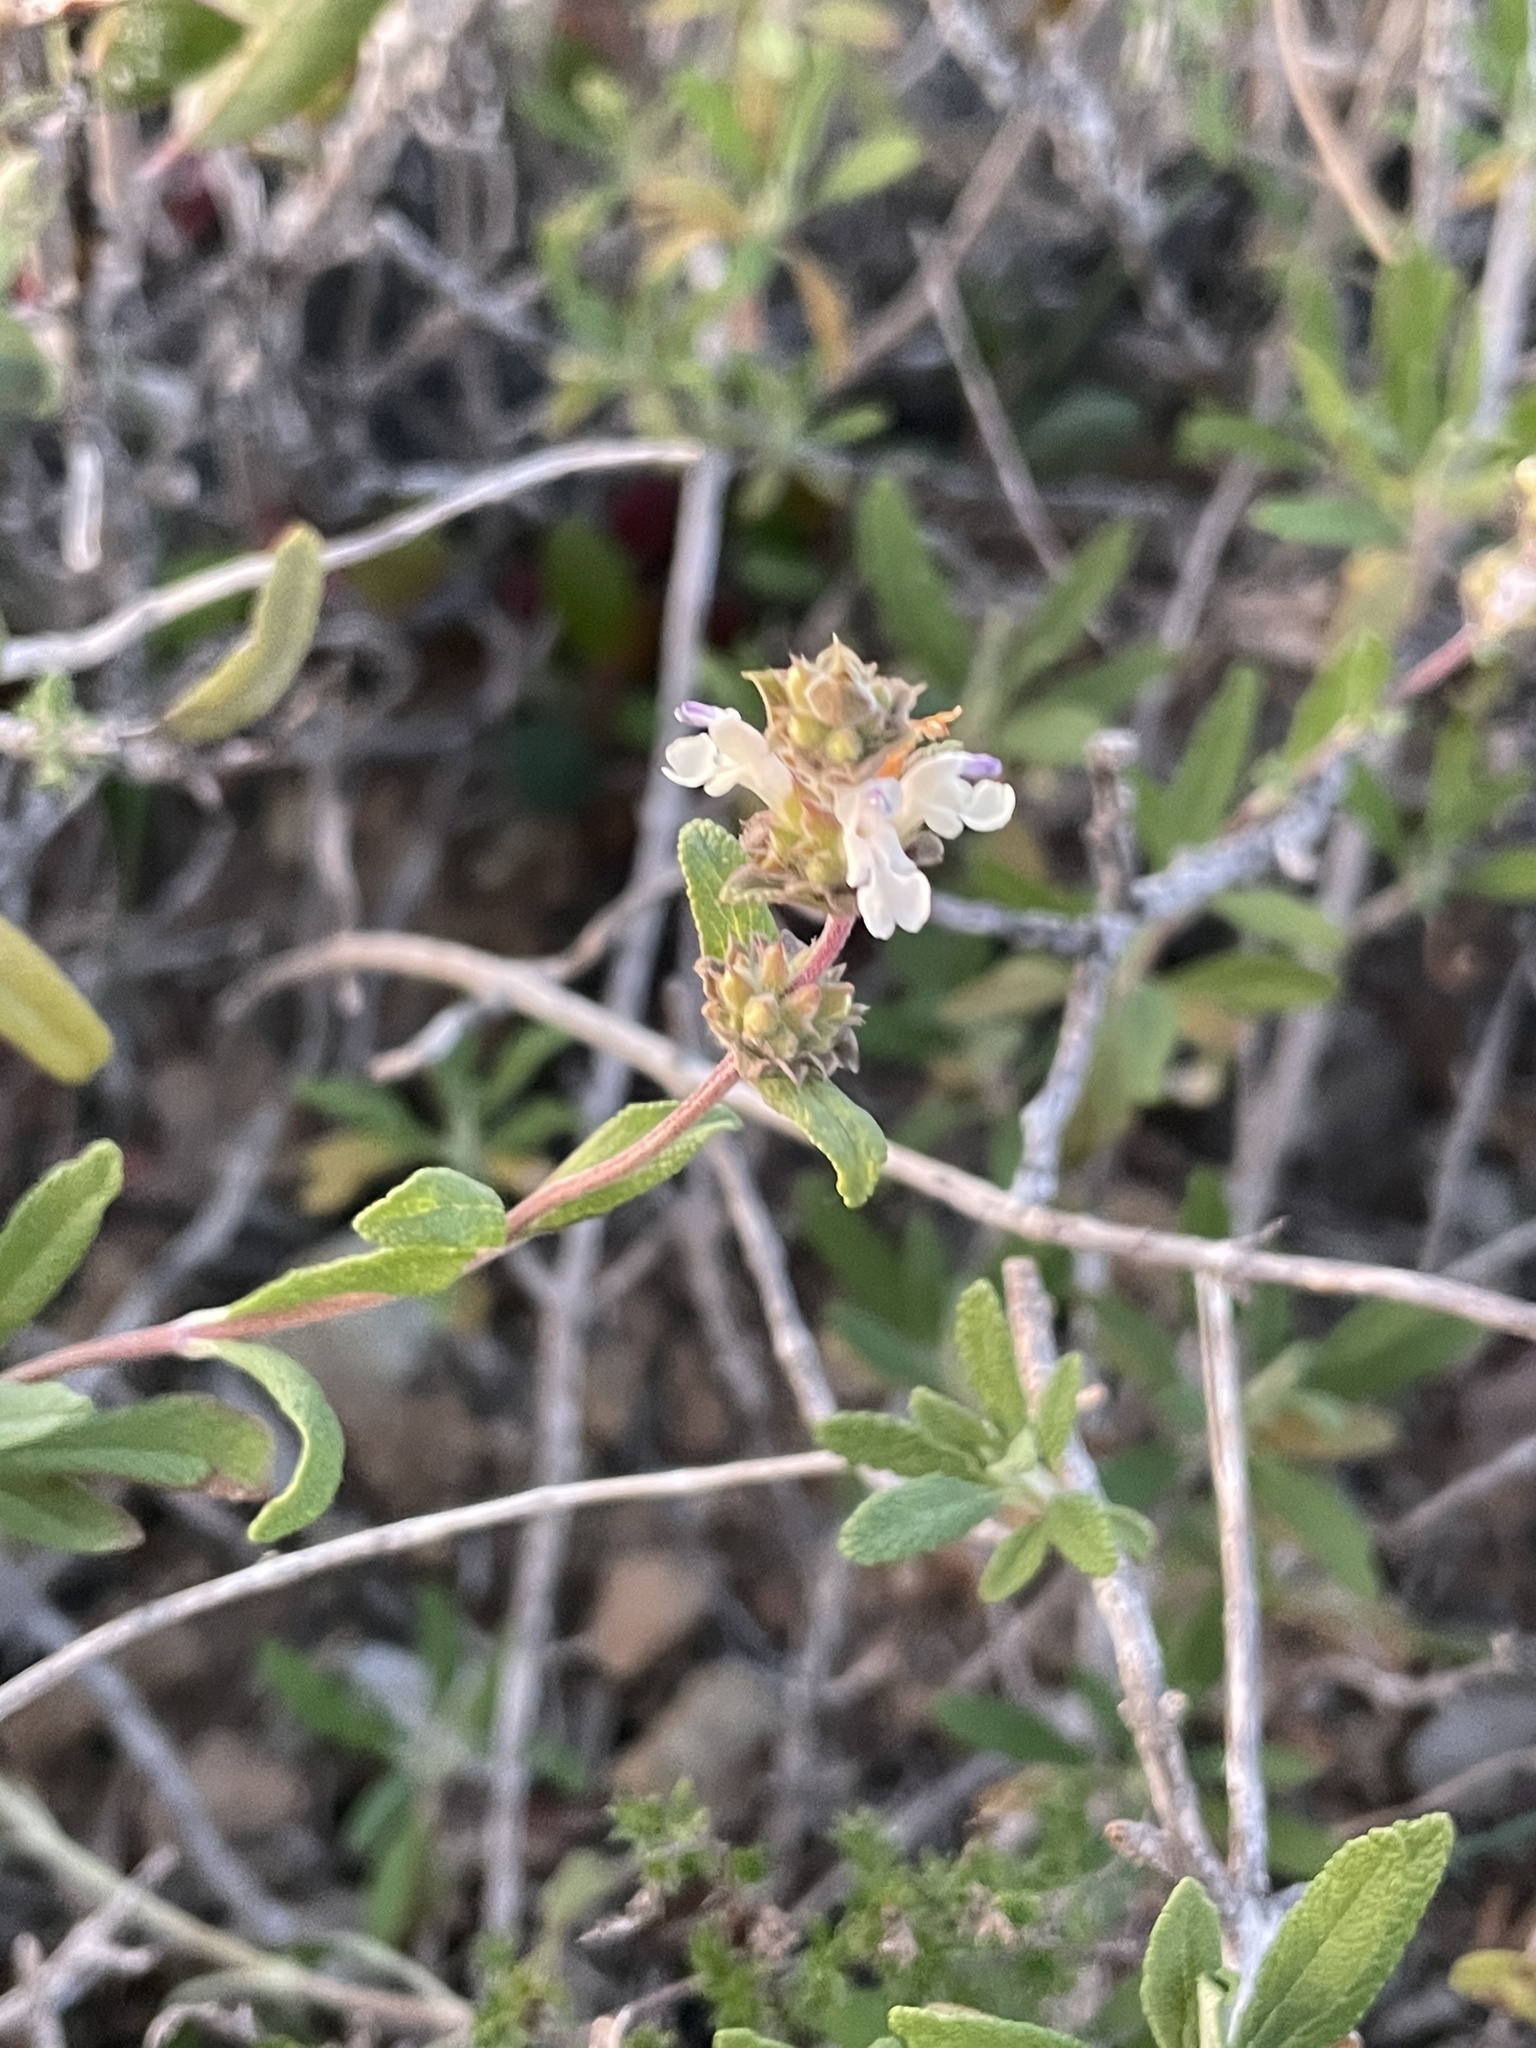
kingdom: Plantae
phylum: Tracheophyta
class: Magnoliopsida
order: Lamiales
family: Lamiaceae
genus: Salvia
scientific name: Salvia mellifera
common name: Black sage
